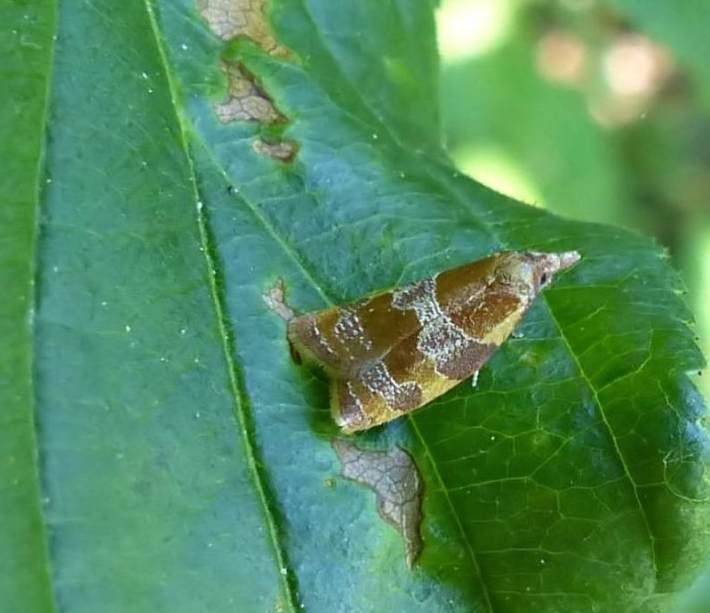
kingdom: Animalia
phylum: Arthropoda
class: Insecta
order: Lepidoptera
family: Tortricidae
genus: Cenopis
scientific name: Cenopis diluticostana
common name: Spring dead-leaf roller moth
